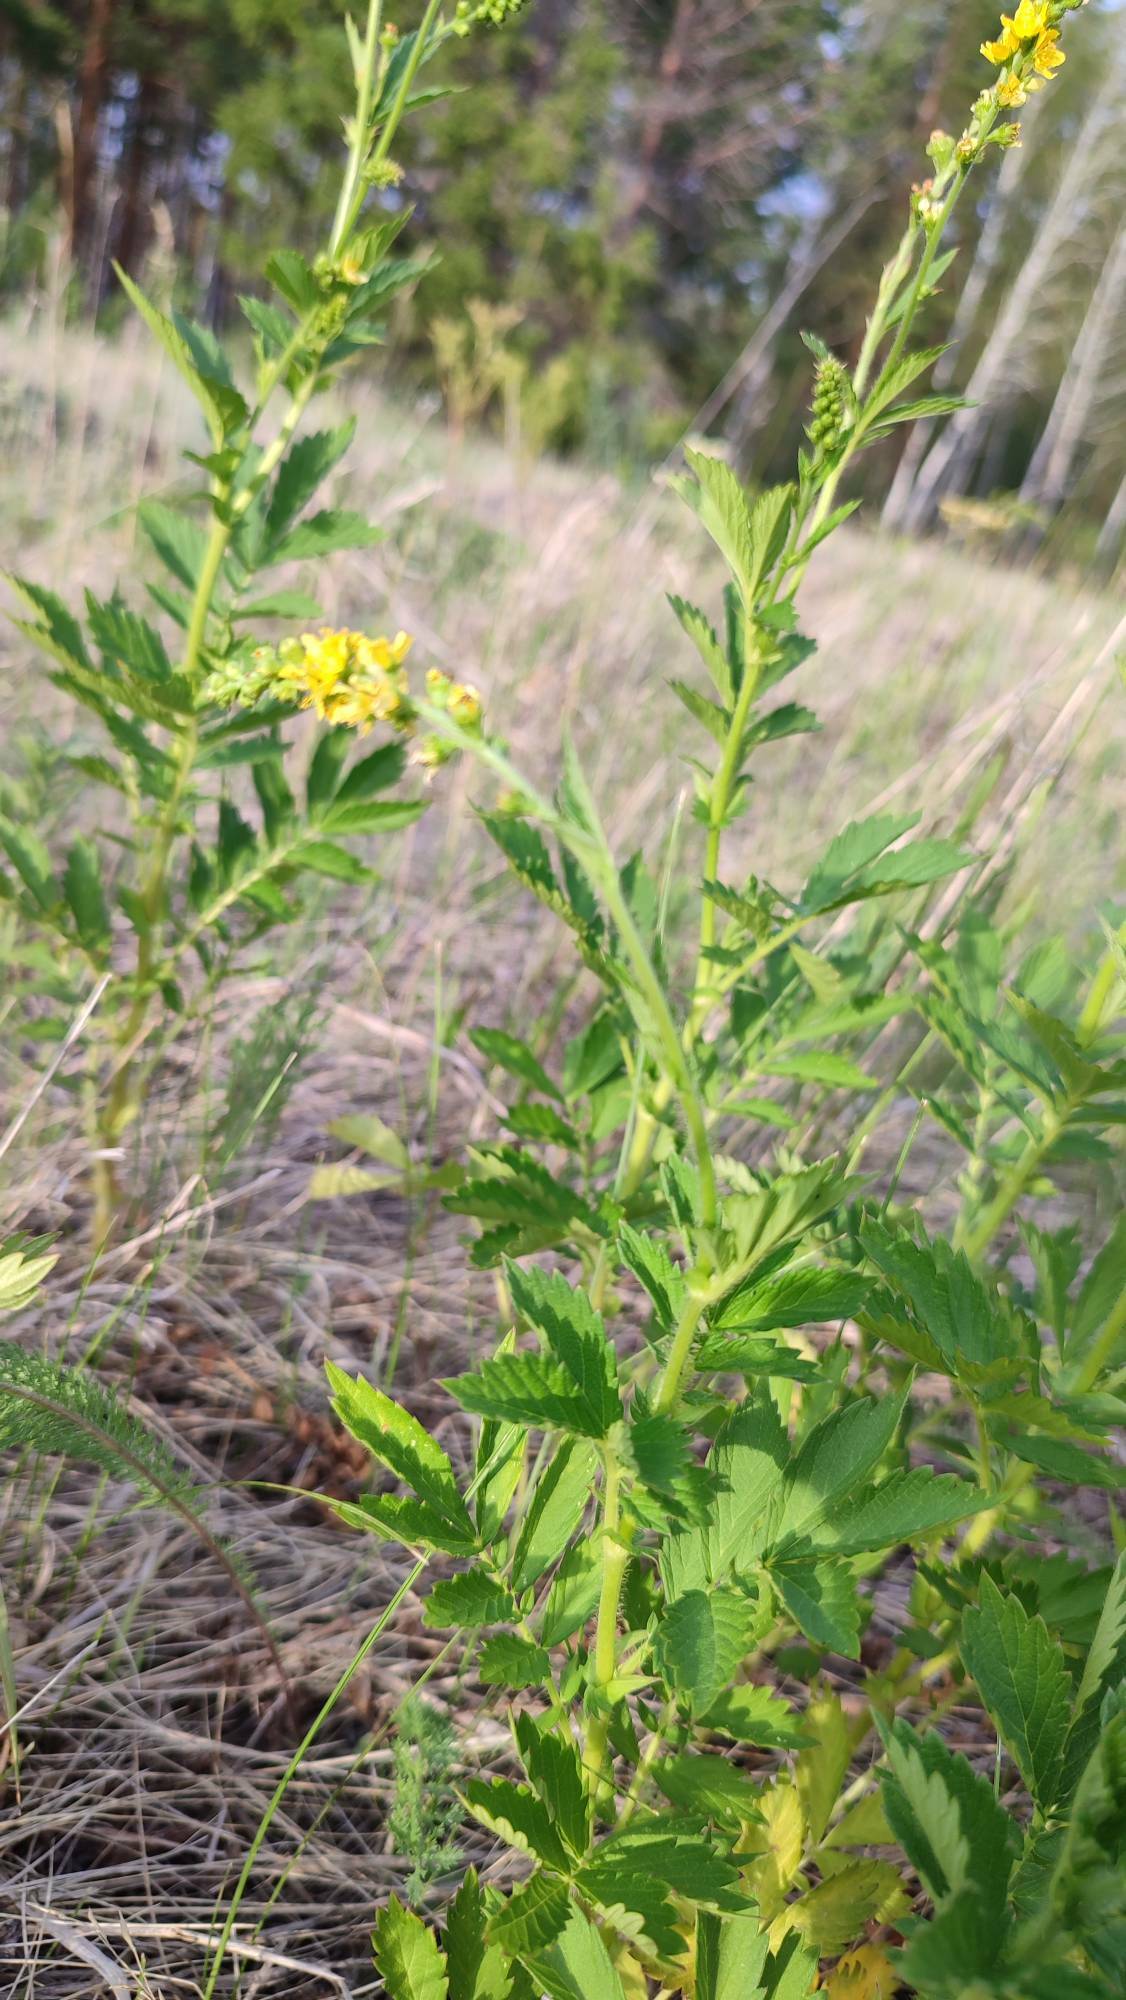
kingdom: Plantae
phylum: Tracheophyta
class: Magnoliopsida
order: Rosales
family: Rosaceae
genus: Agrimonia
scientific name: Agrimonia pilosa
